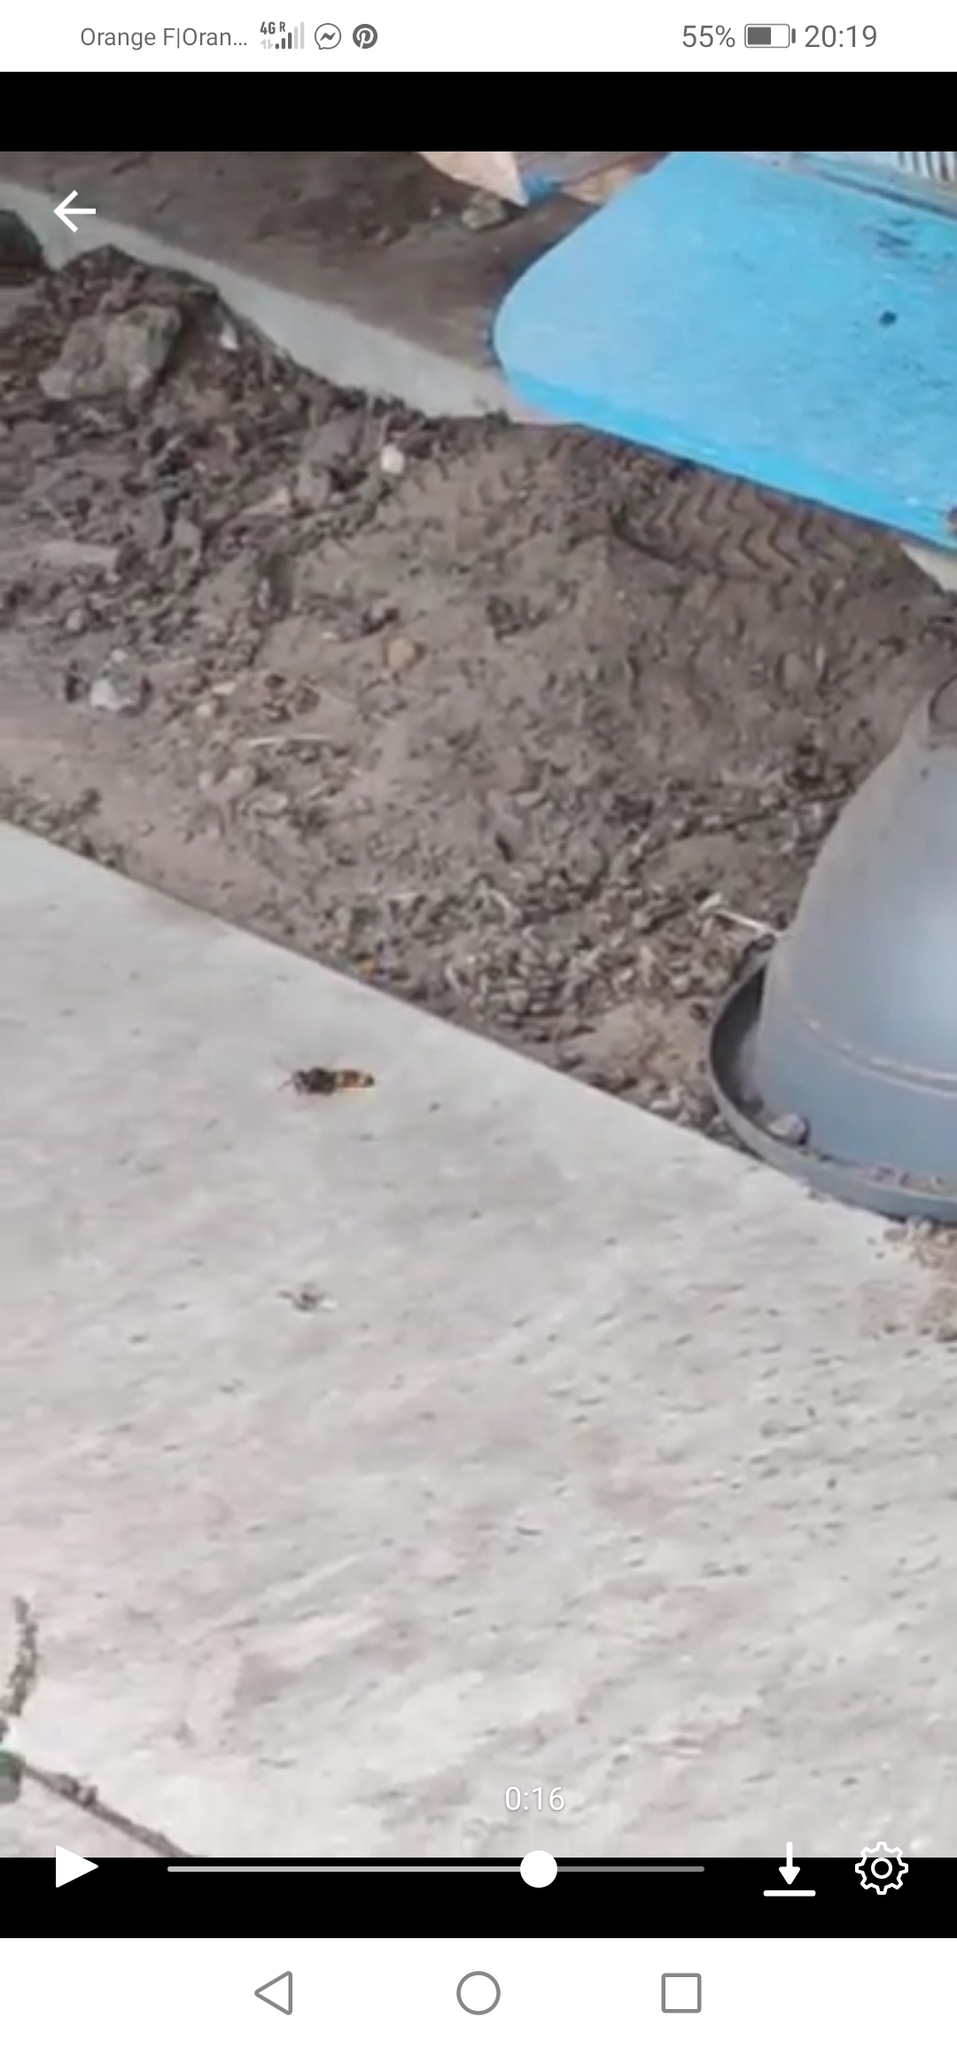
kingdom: Animalia
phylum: Arthropoda
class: Insecta
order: Hymenoptera
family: Vespidae
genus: Vespa
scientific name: Vespa velutina
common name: Asian hornet
